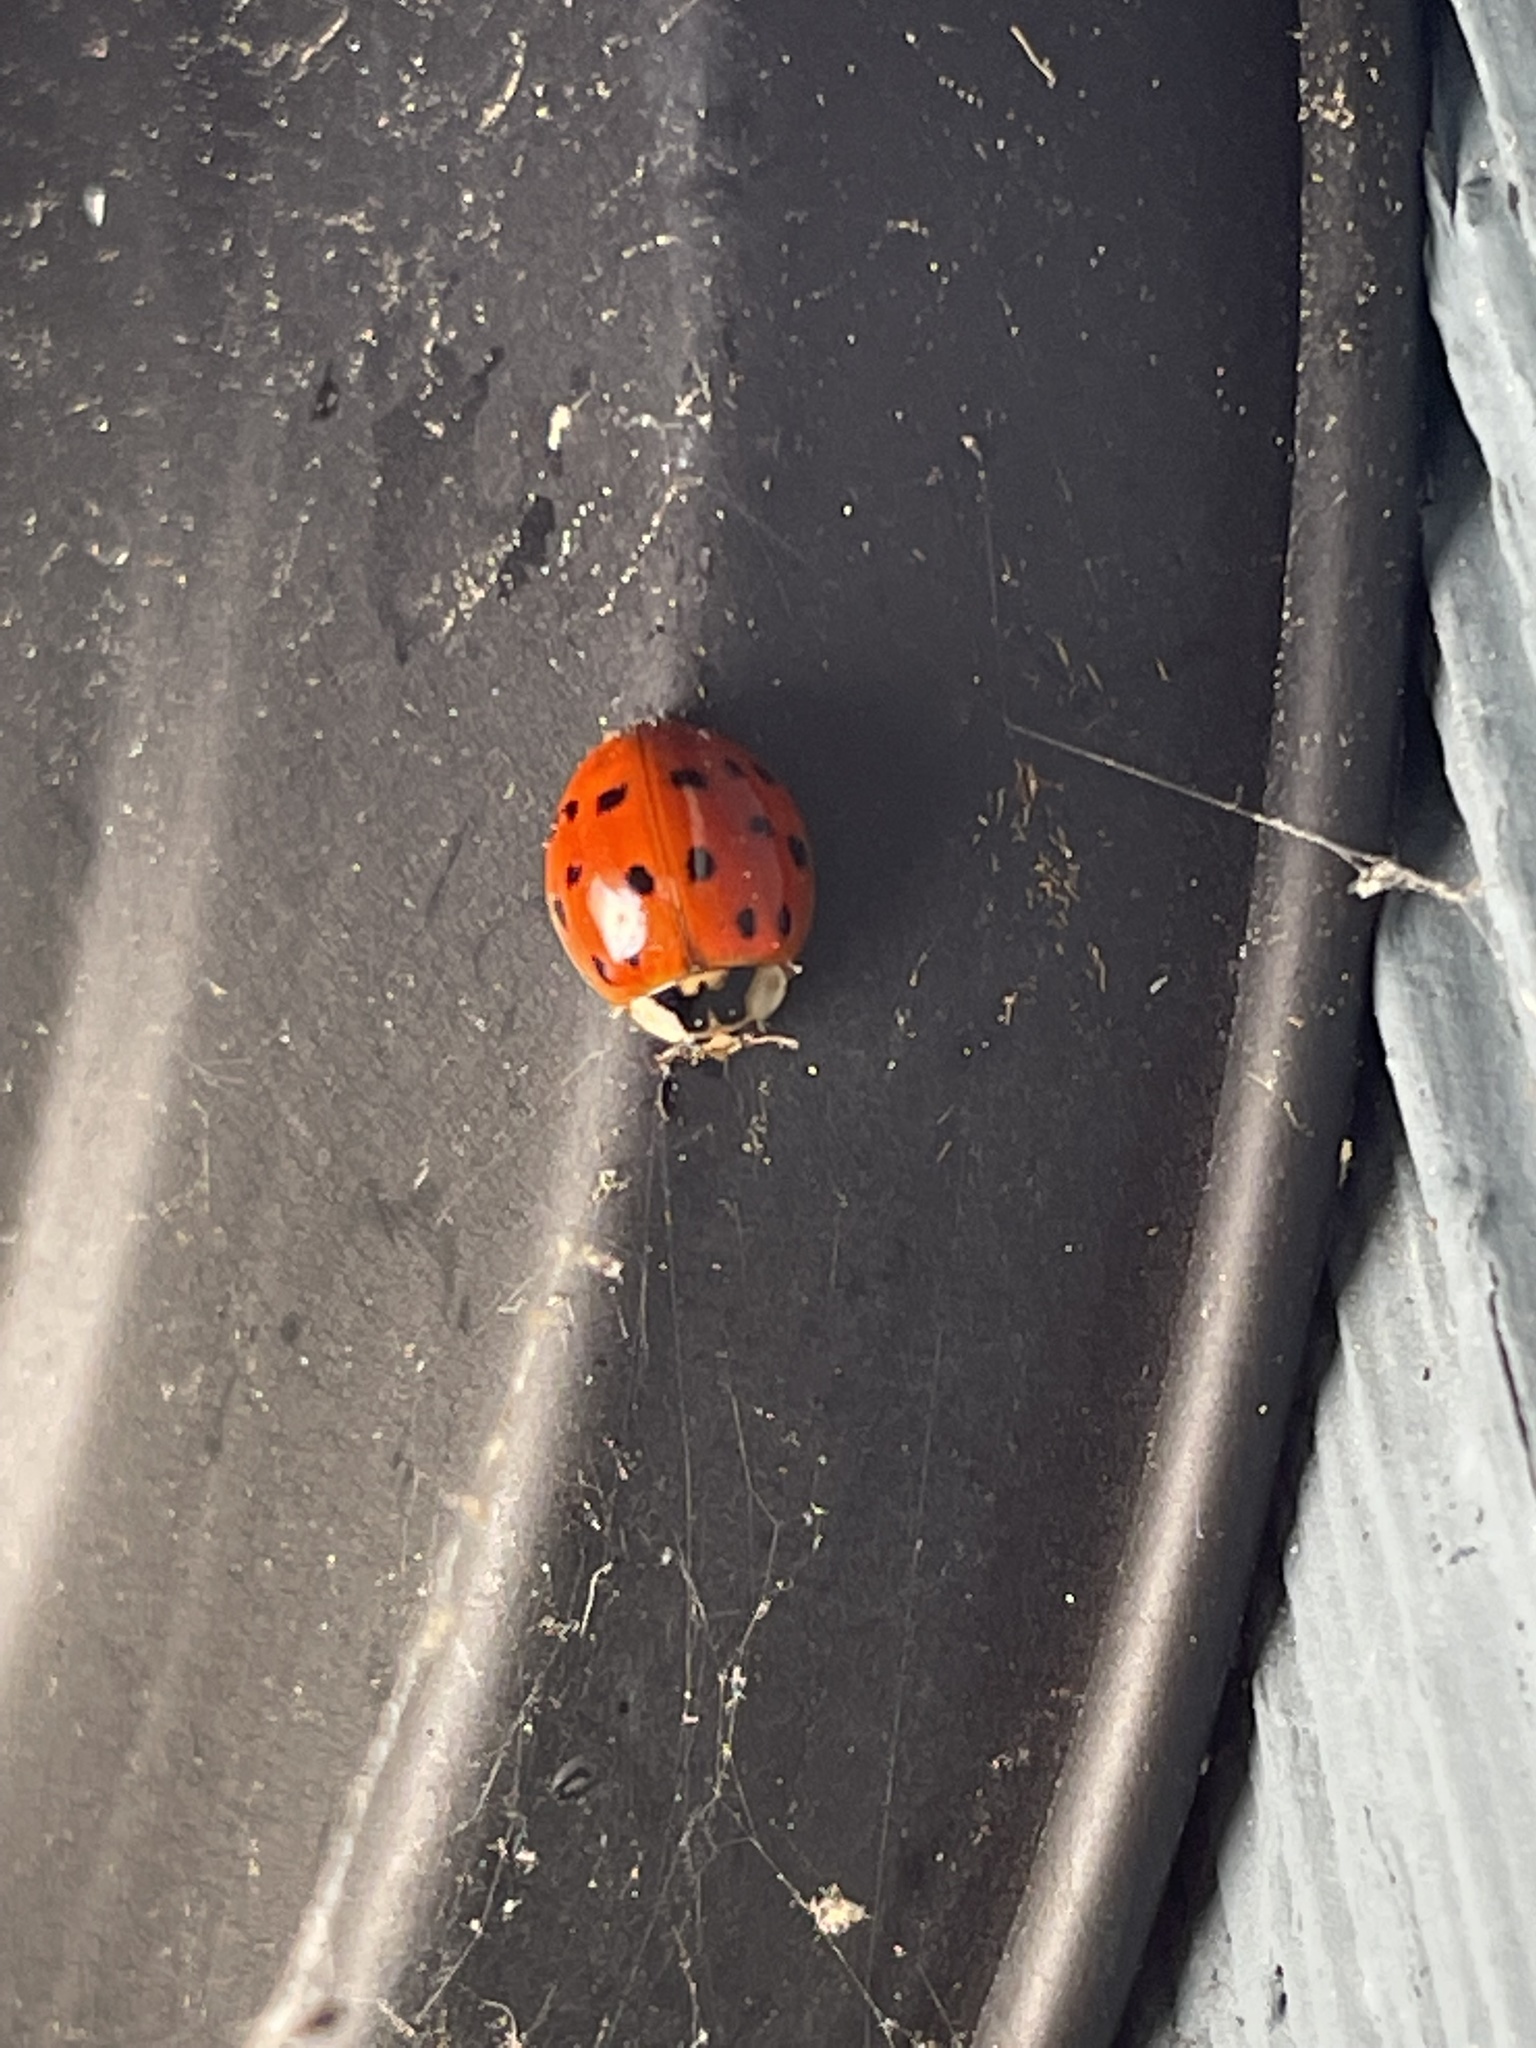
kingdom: Animalia
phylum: Arthropoda
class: Insecta
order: Coleoptera
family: Coccinellidae
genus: Harmonia
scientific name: Harmonia axyridis
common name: Harlequin ladybird
